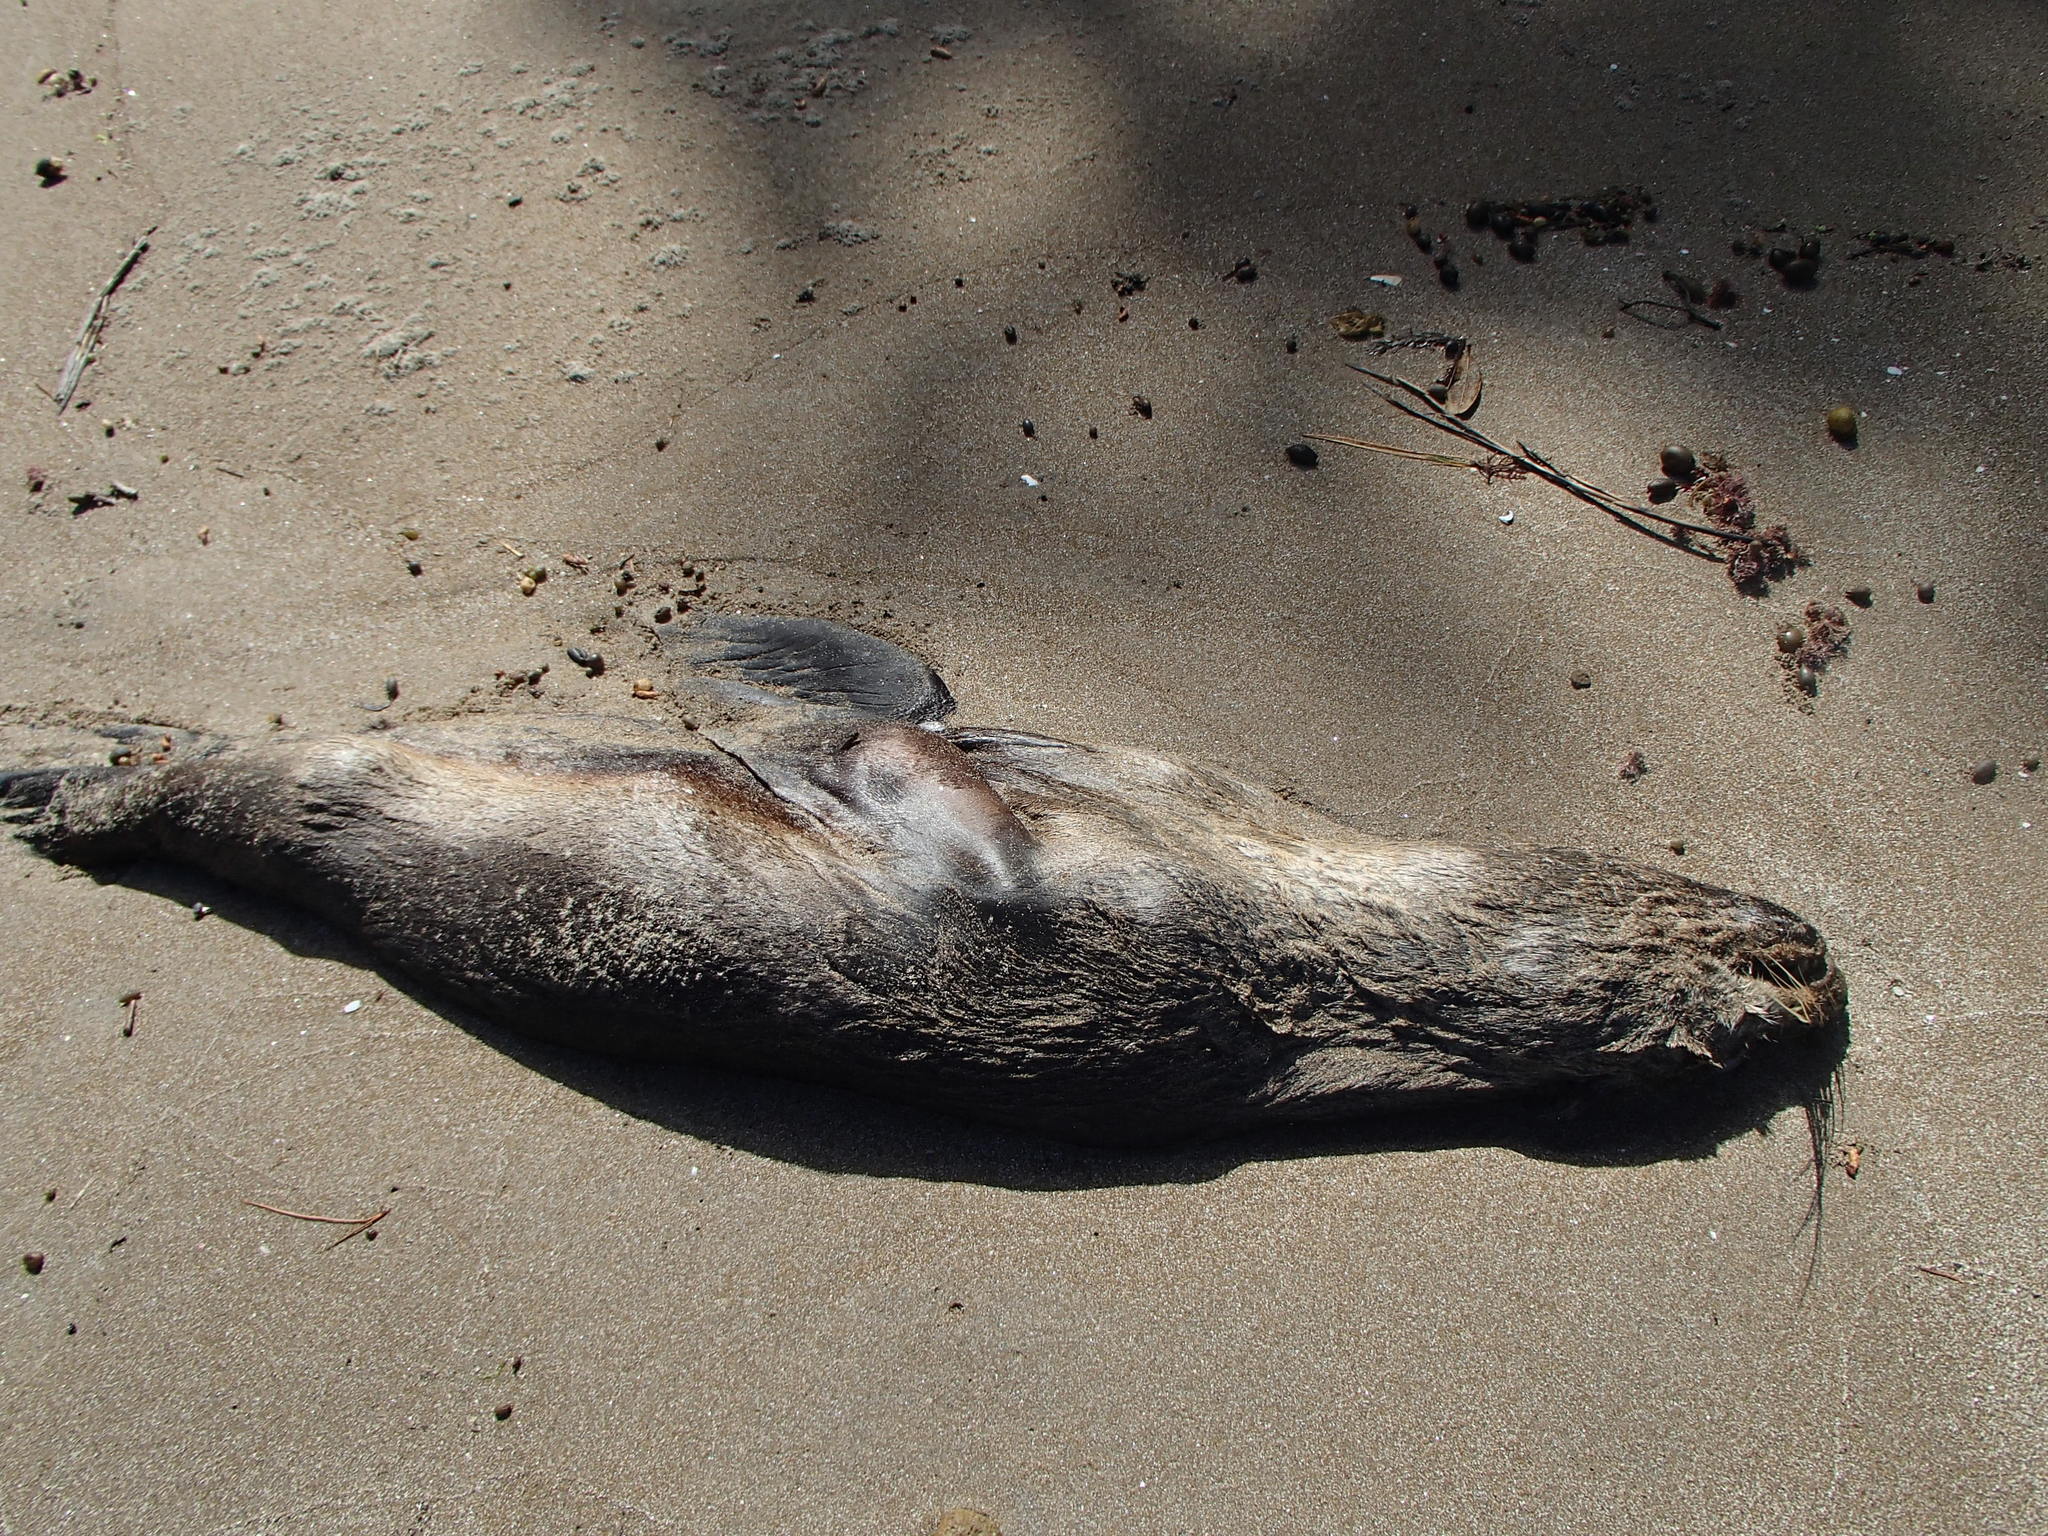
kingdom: Animalia
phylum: Chordata
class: Mammalia
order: Carnivora
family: Otariidae
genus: Arctocephalus
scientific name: Arctocephalus forsteri
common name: New zealand fur seal
